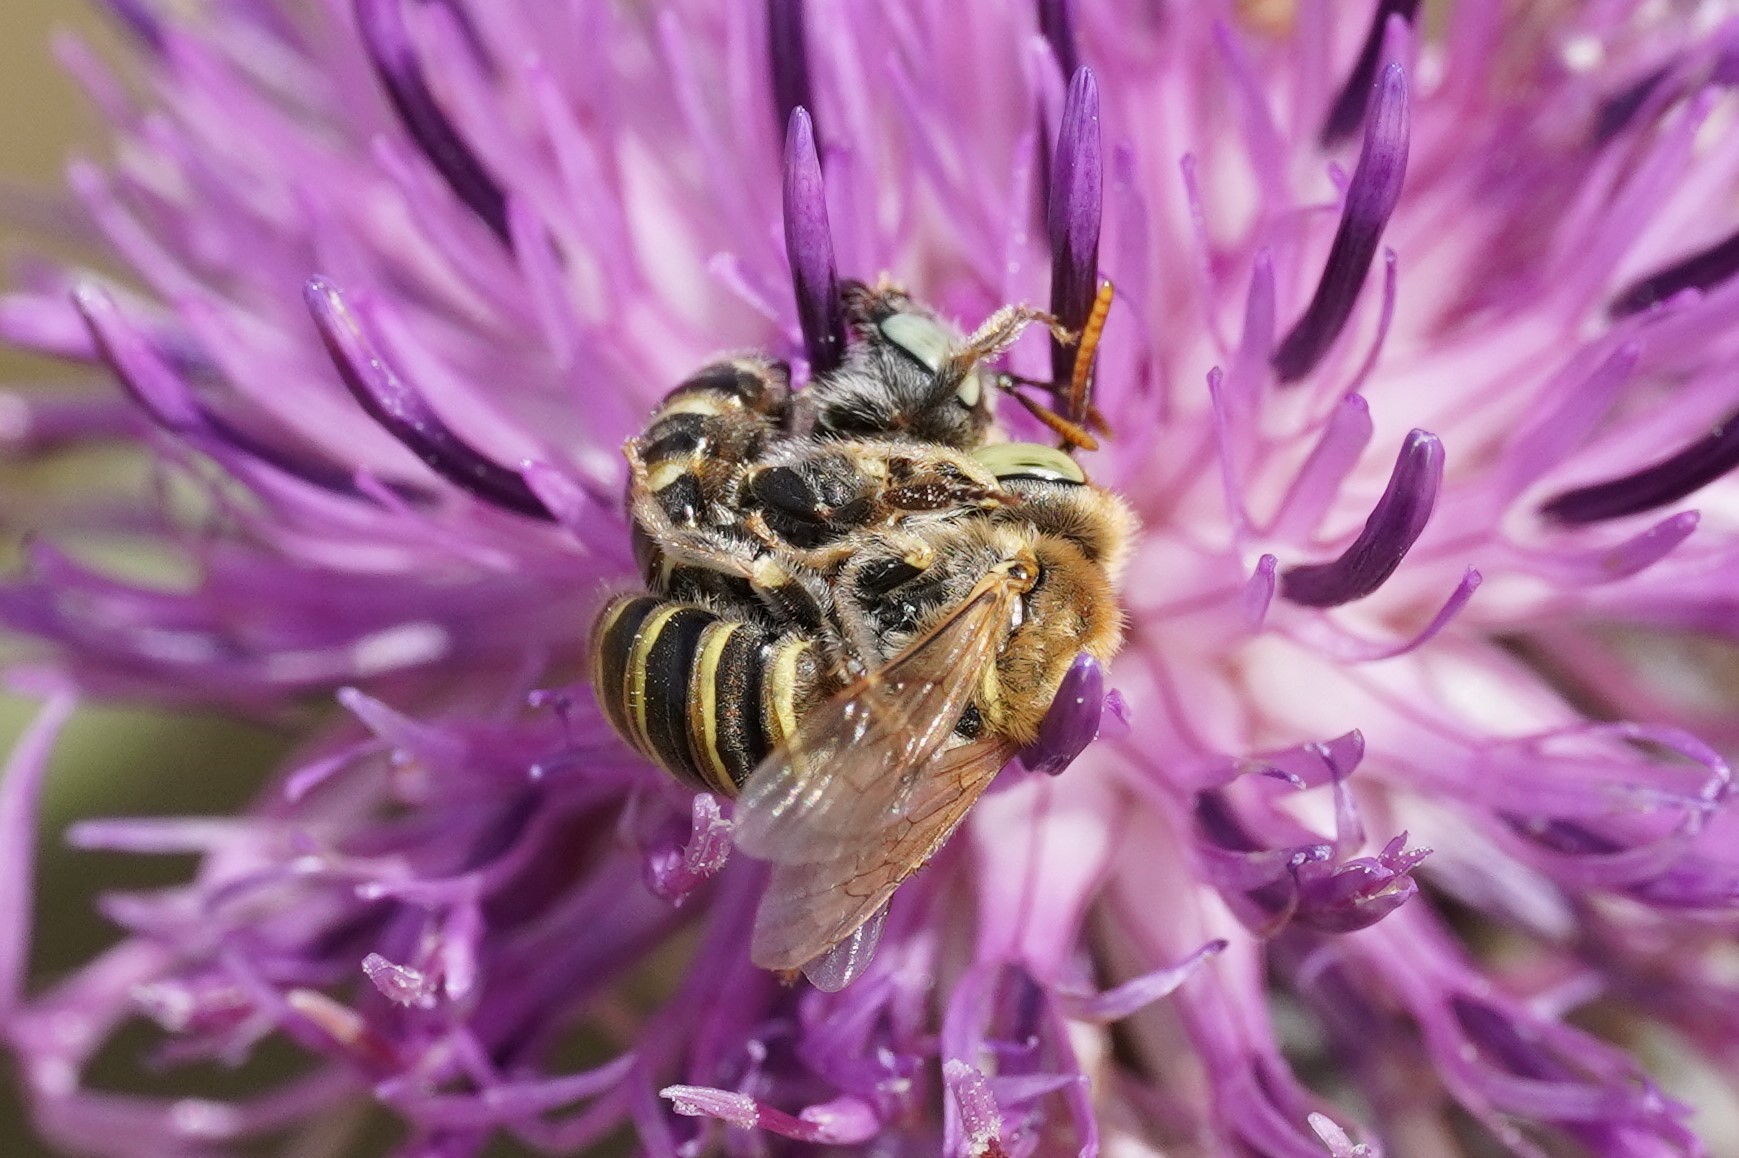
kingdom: Animalia
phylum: Arthropoda
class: Insecta
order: Hymenoptera
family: Andrenidae
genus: Camptopoeum
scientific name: Camptopoeum friesei
